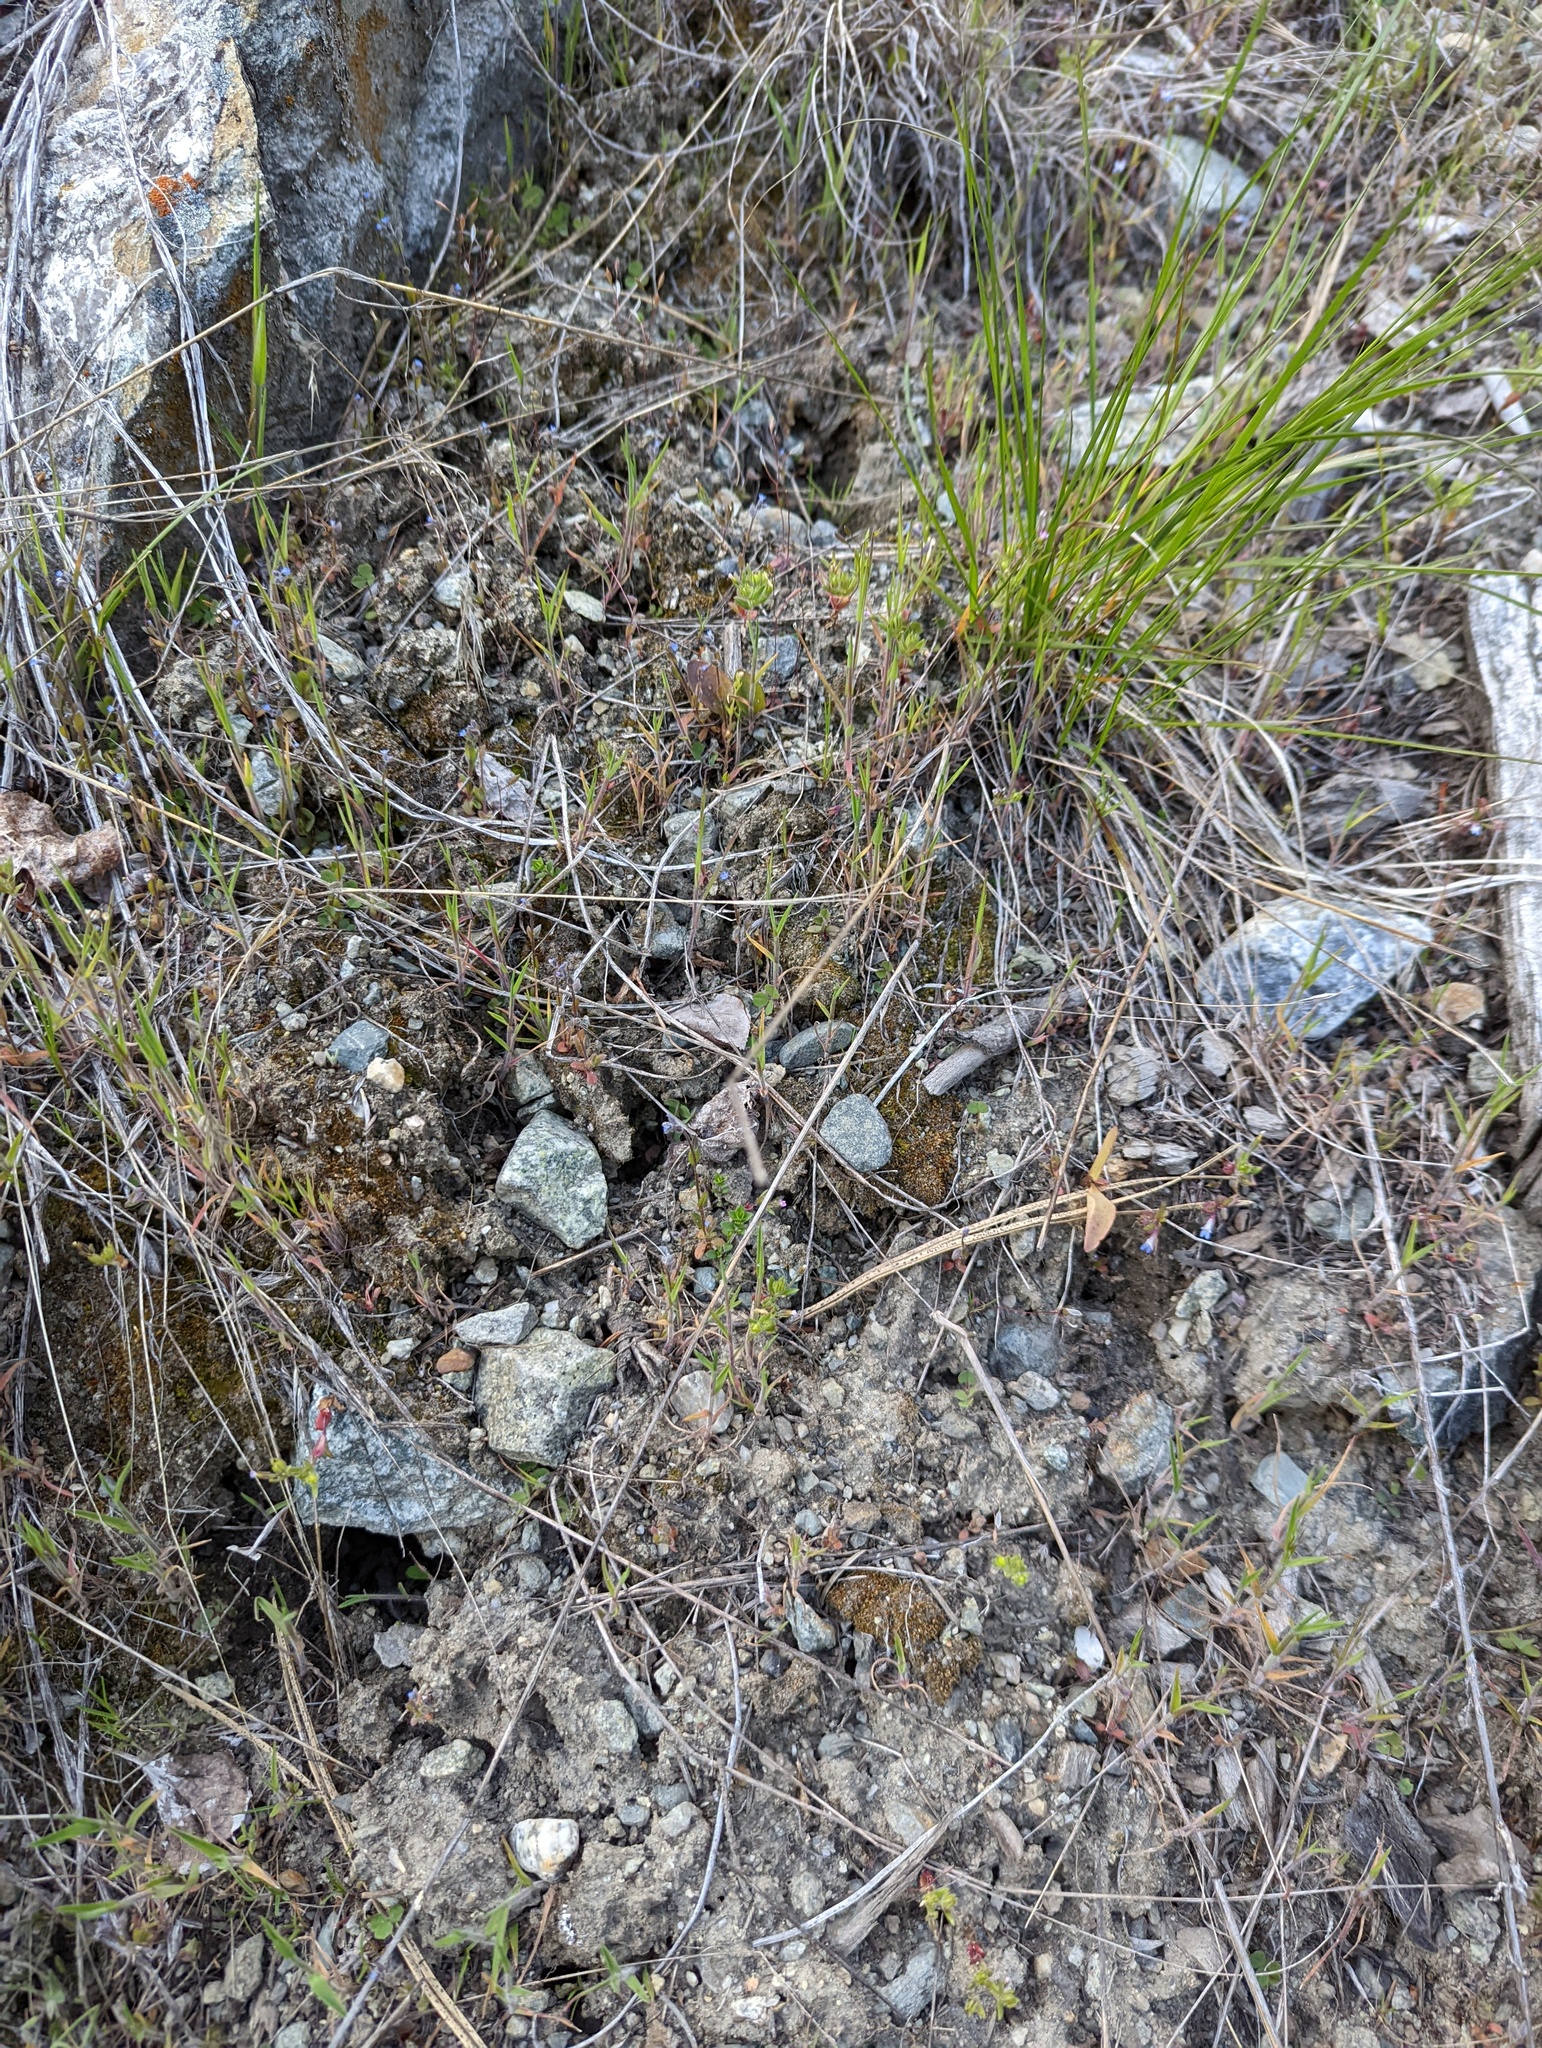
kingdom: Plantae
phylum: Bryophyta
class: Bryopsida
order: Pottiales
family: Pottiaceae
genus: Tortula
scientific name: Tortula acaulon
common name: Cuspidate earth moss
